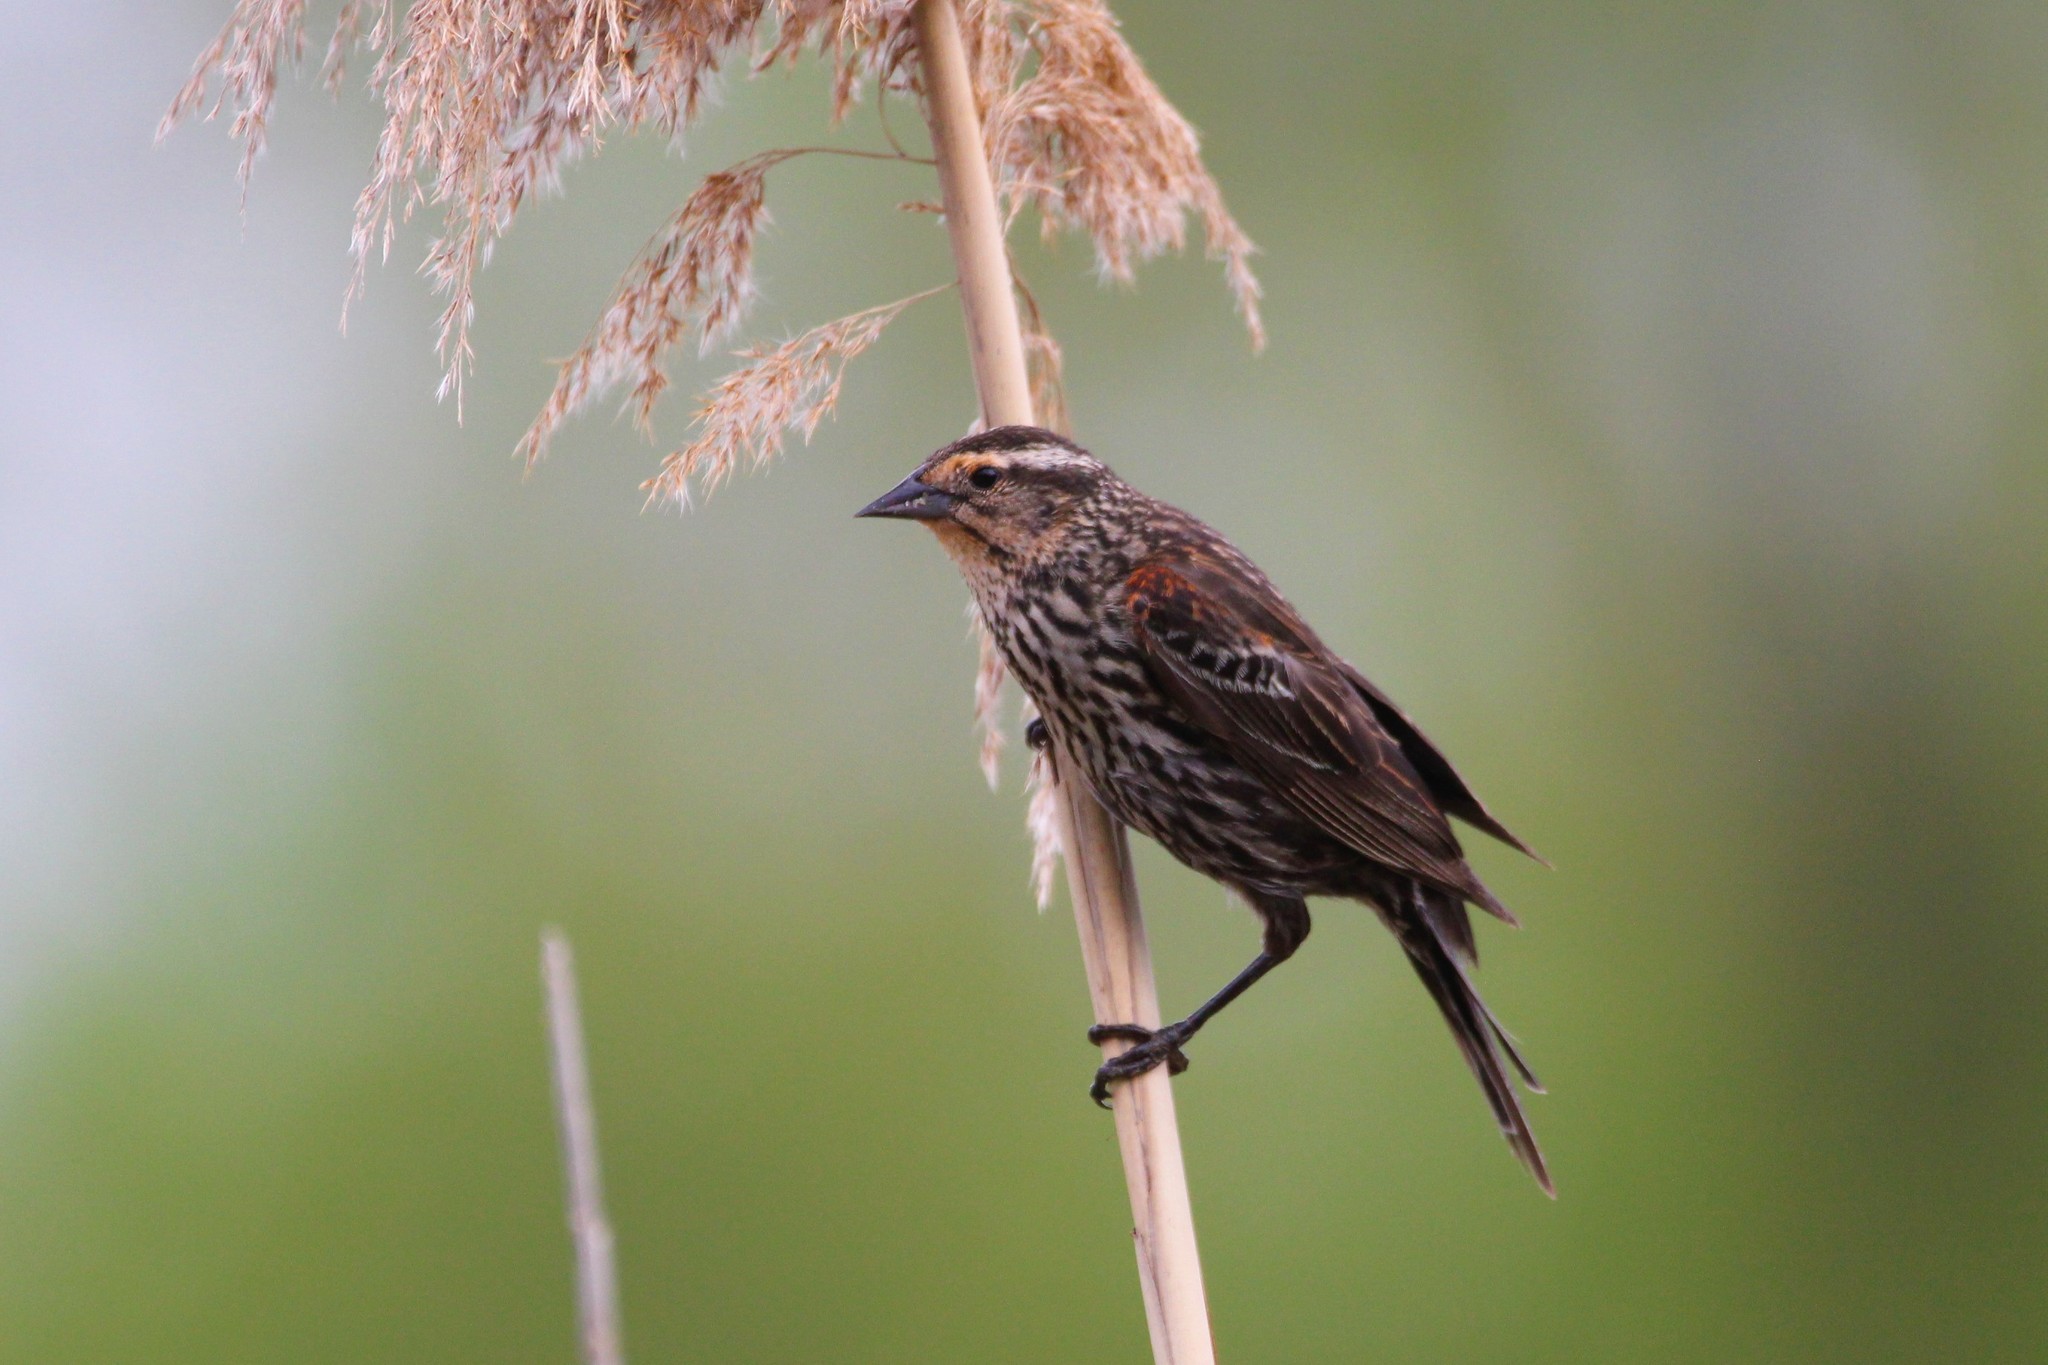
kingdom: Animalia
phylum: Chordata
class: Aves
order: Passeriformes
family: Icteridae
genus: Agelaius
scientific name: Agelaius phoeniceus
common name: Red-winged blackbird
